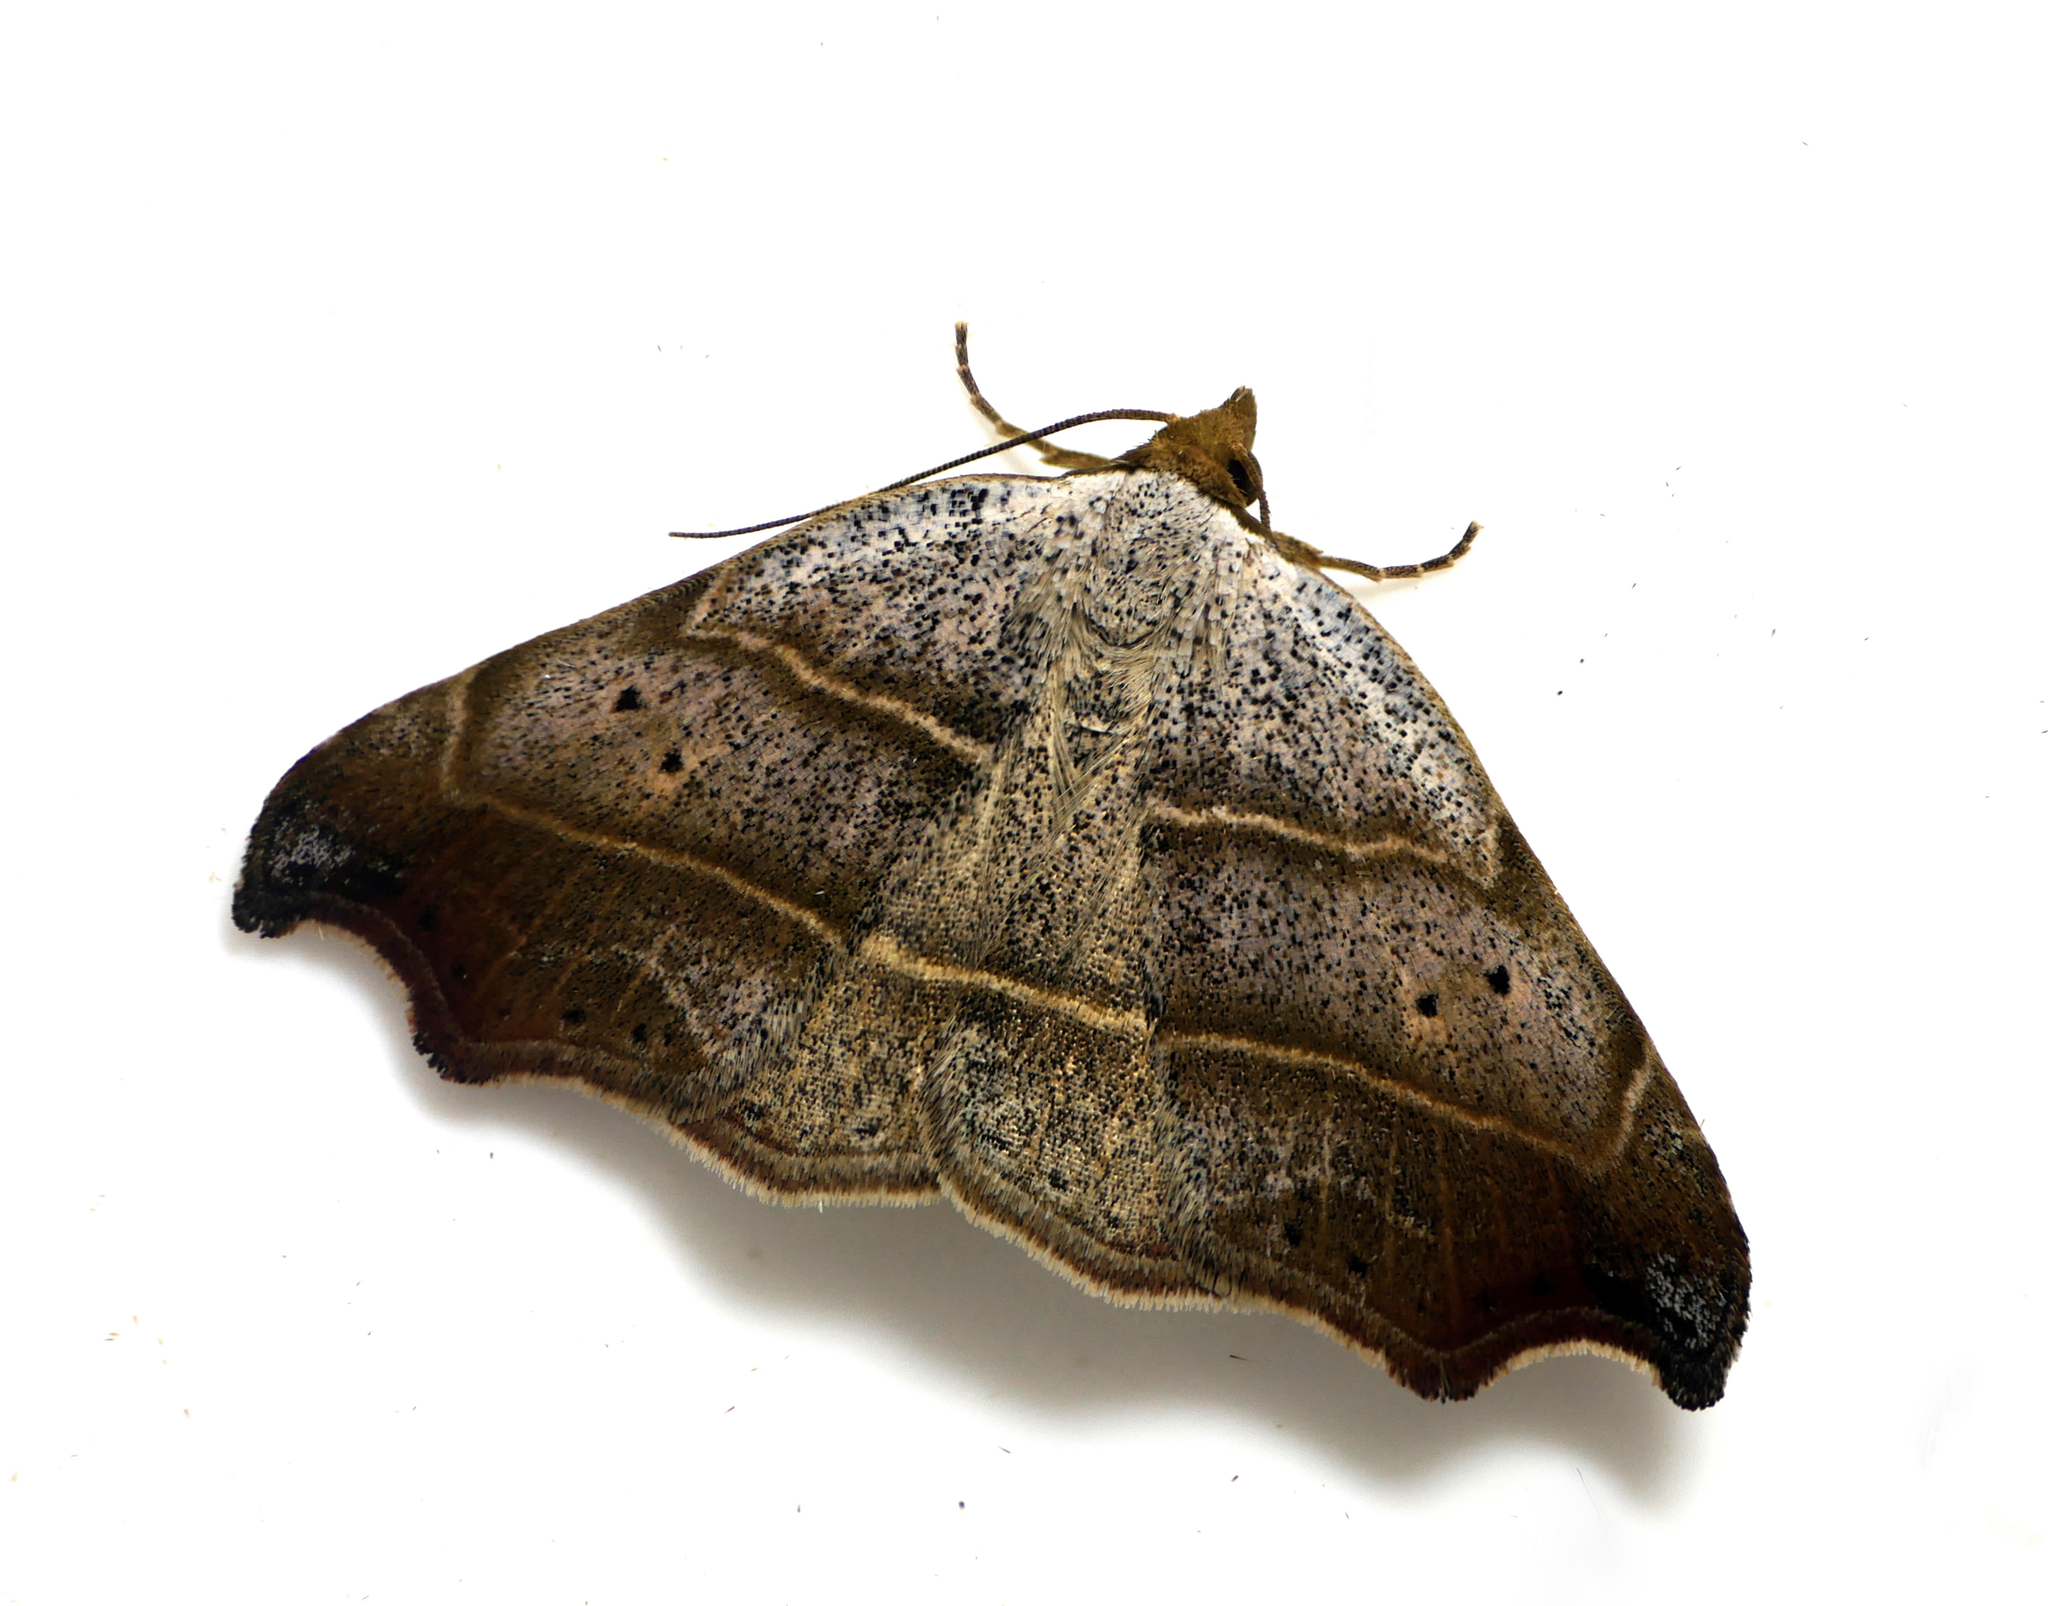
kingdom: Animalia
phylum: Arthropoda
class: Insecta
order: Lepidoptera
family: Erebidae
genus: Laspeyria
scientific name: Laspeyria flexula
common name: Beautiful hook-tip
